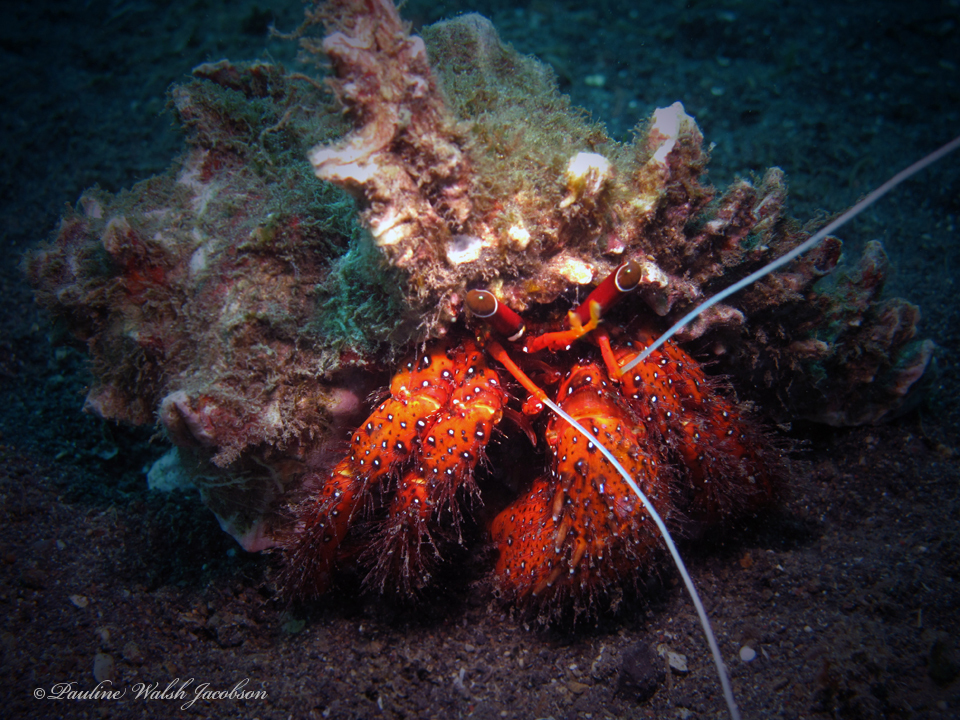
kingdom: Animalia
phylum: Arthropoda
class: Malacostraca
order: Decapoda
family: Diogenidae
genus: Dardanus
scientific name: Dardanus megistos
